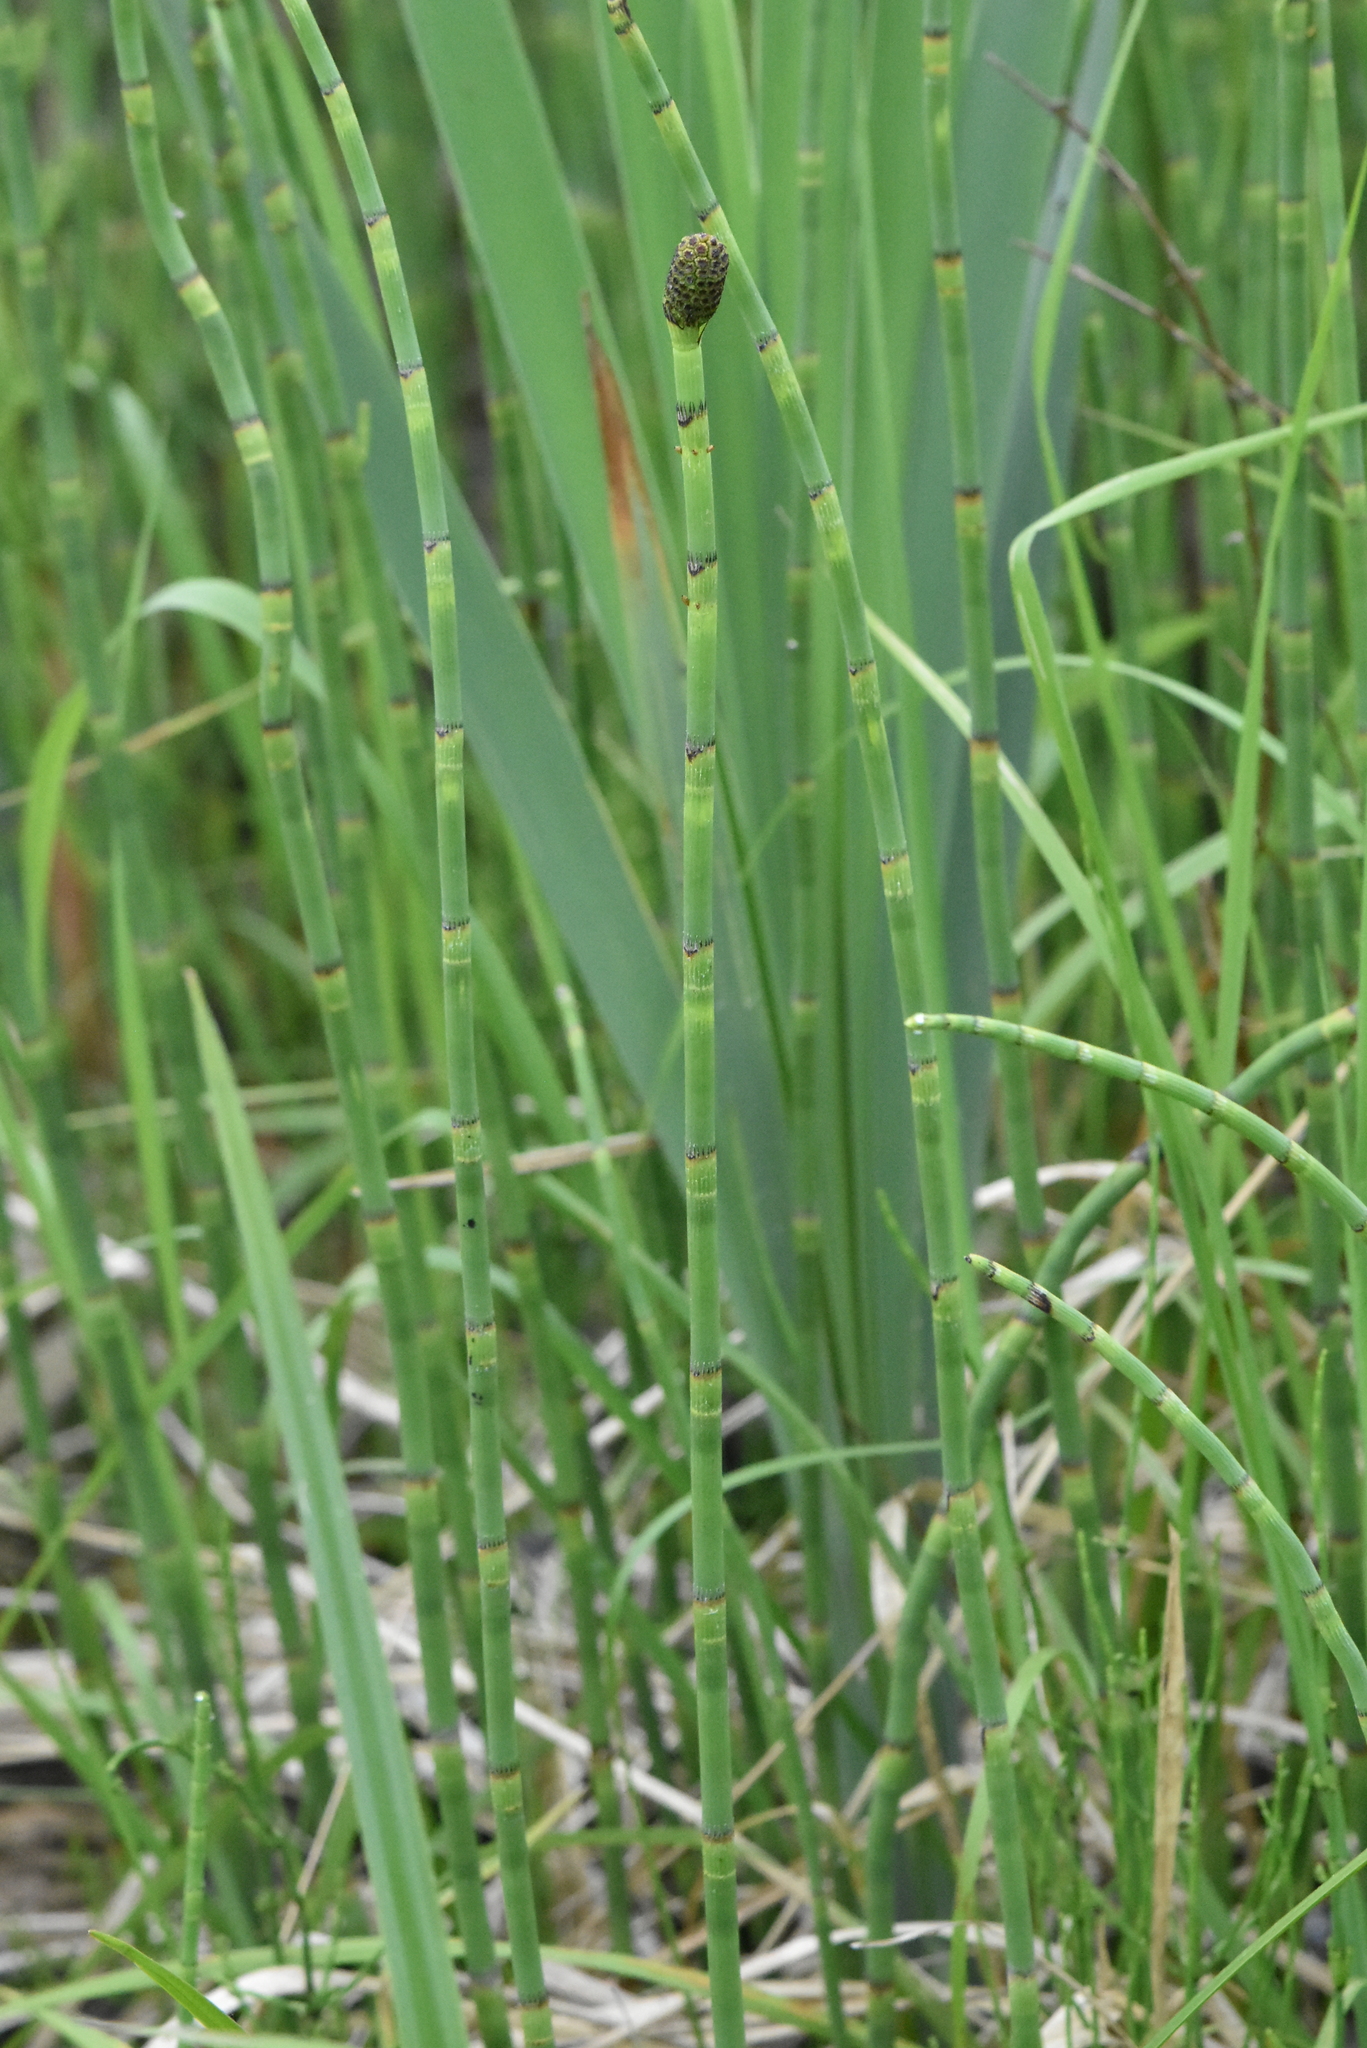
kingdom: Plantae
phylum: Tracheophyta
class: Polypodiopsida
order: Equisetales
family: Equisetaceae
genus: Equisetum
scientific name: Equisetum fluviatile
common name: Water horsetail
